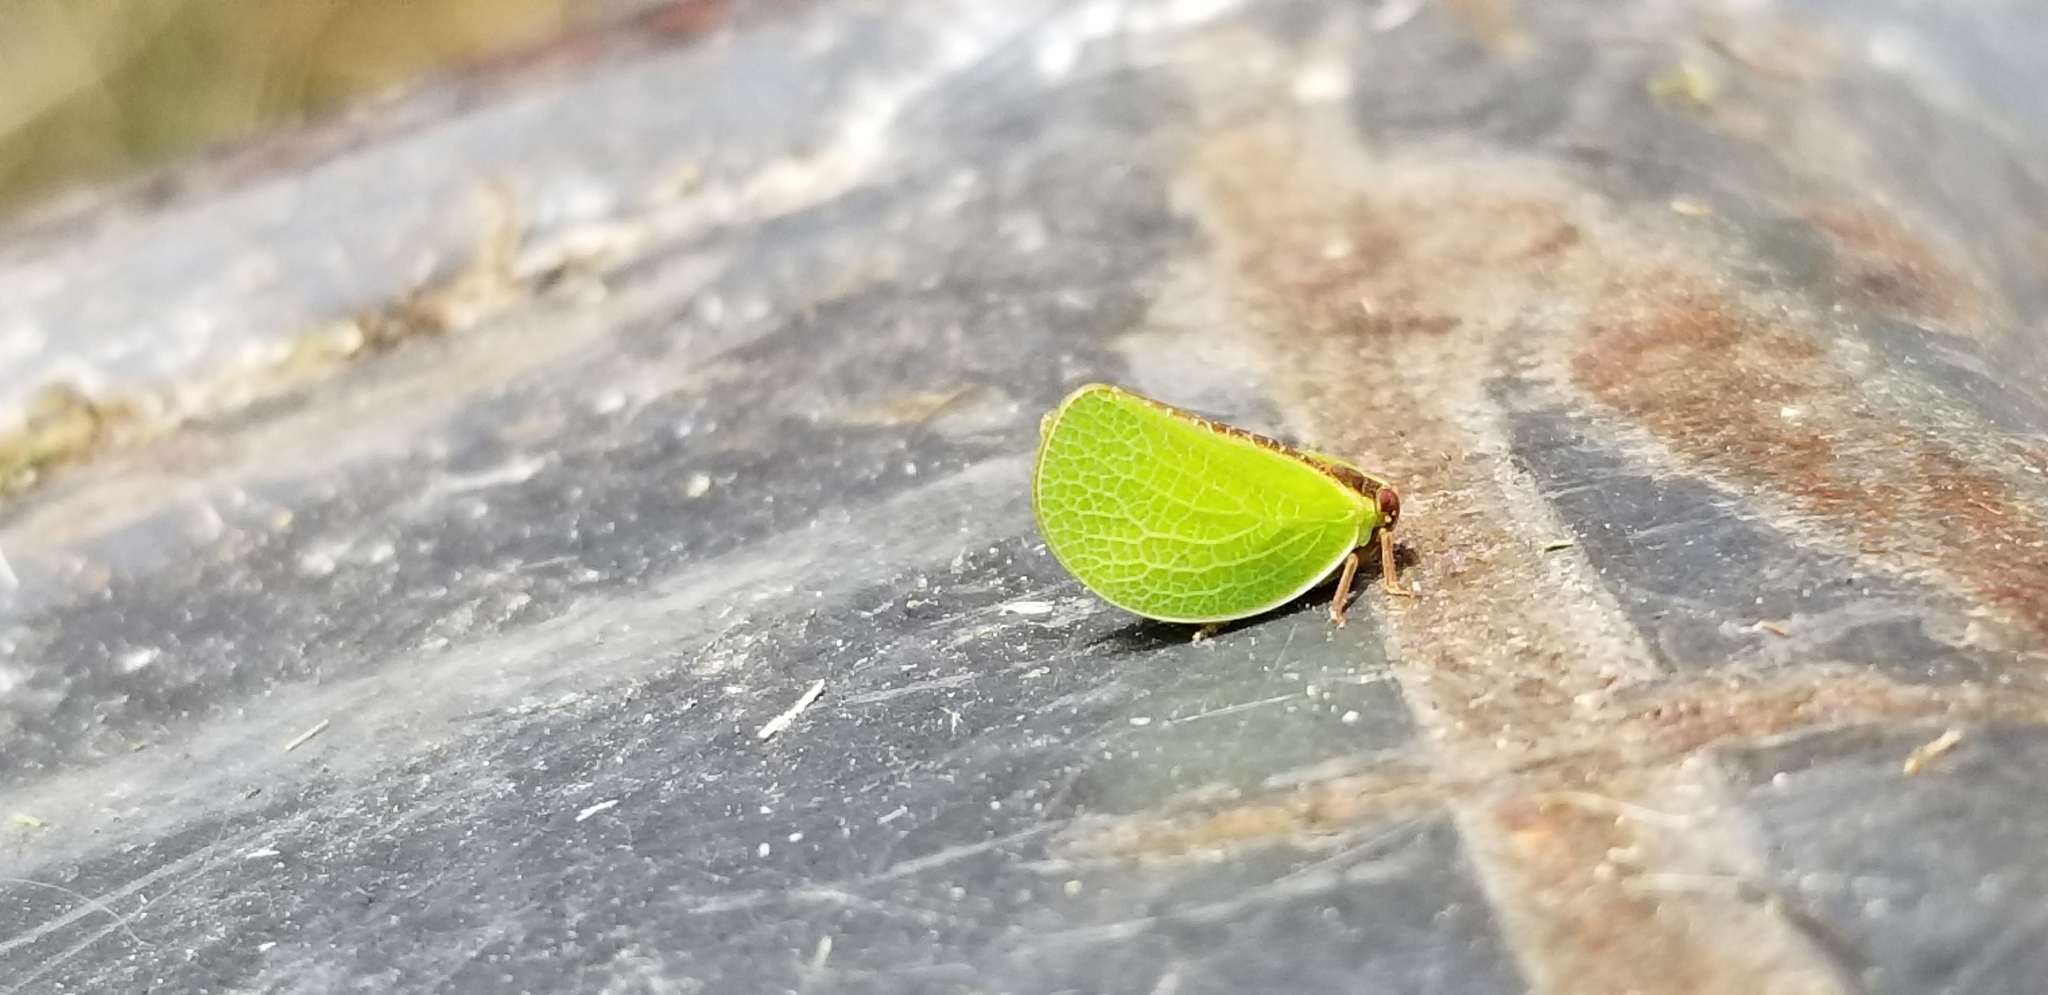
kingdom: Animalia
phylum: Arthropoda
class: Insecta
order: Hemiptera
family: Acanaloniidae
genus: Acanalonia
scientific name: Acanalonia bivittata
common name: Two-striped planthopper
